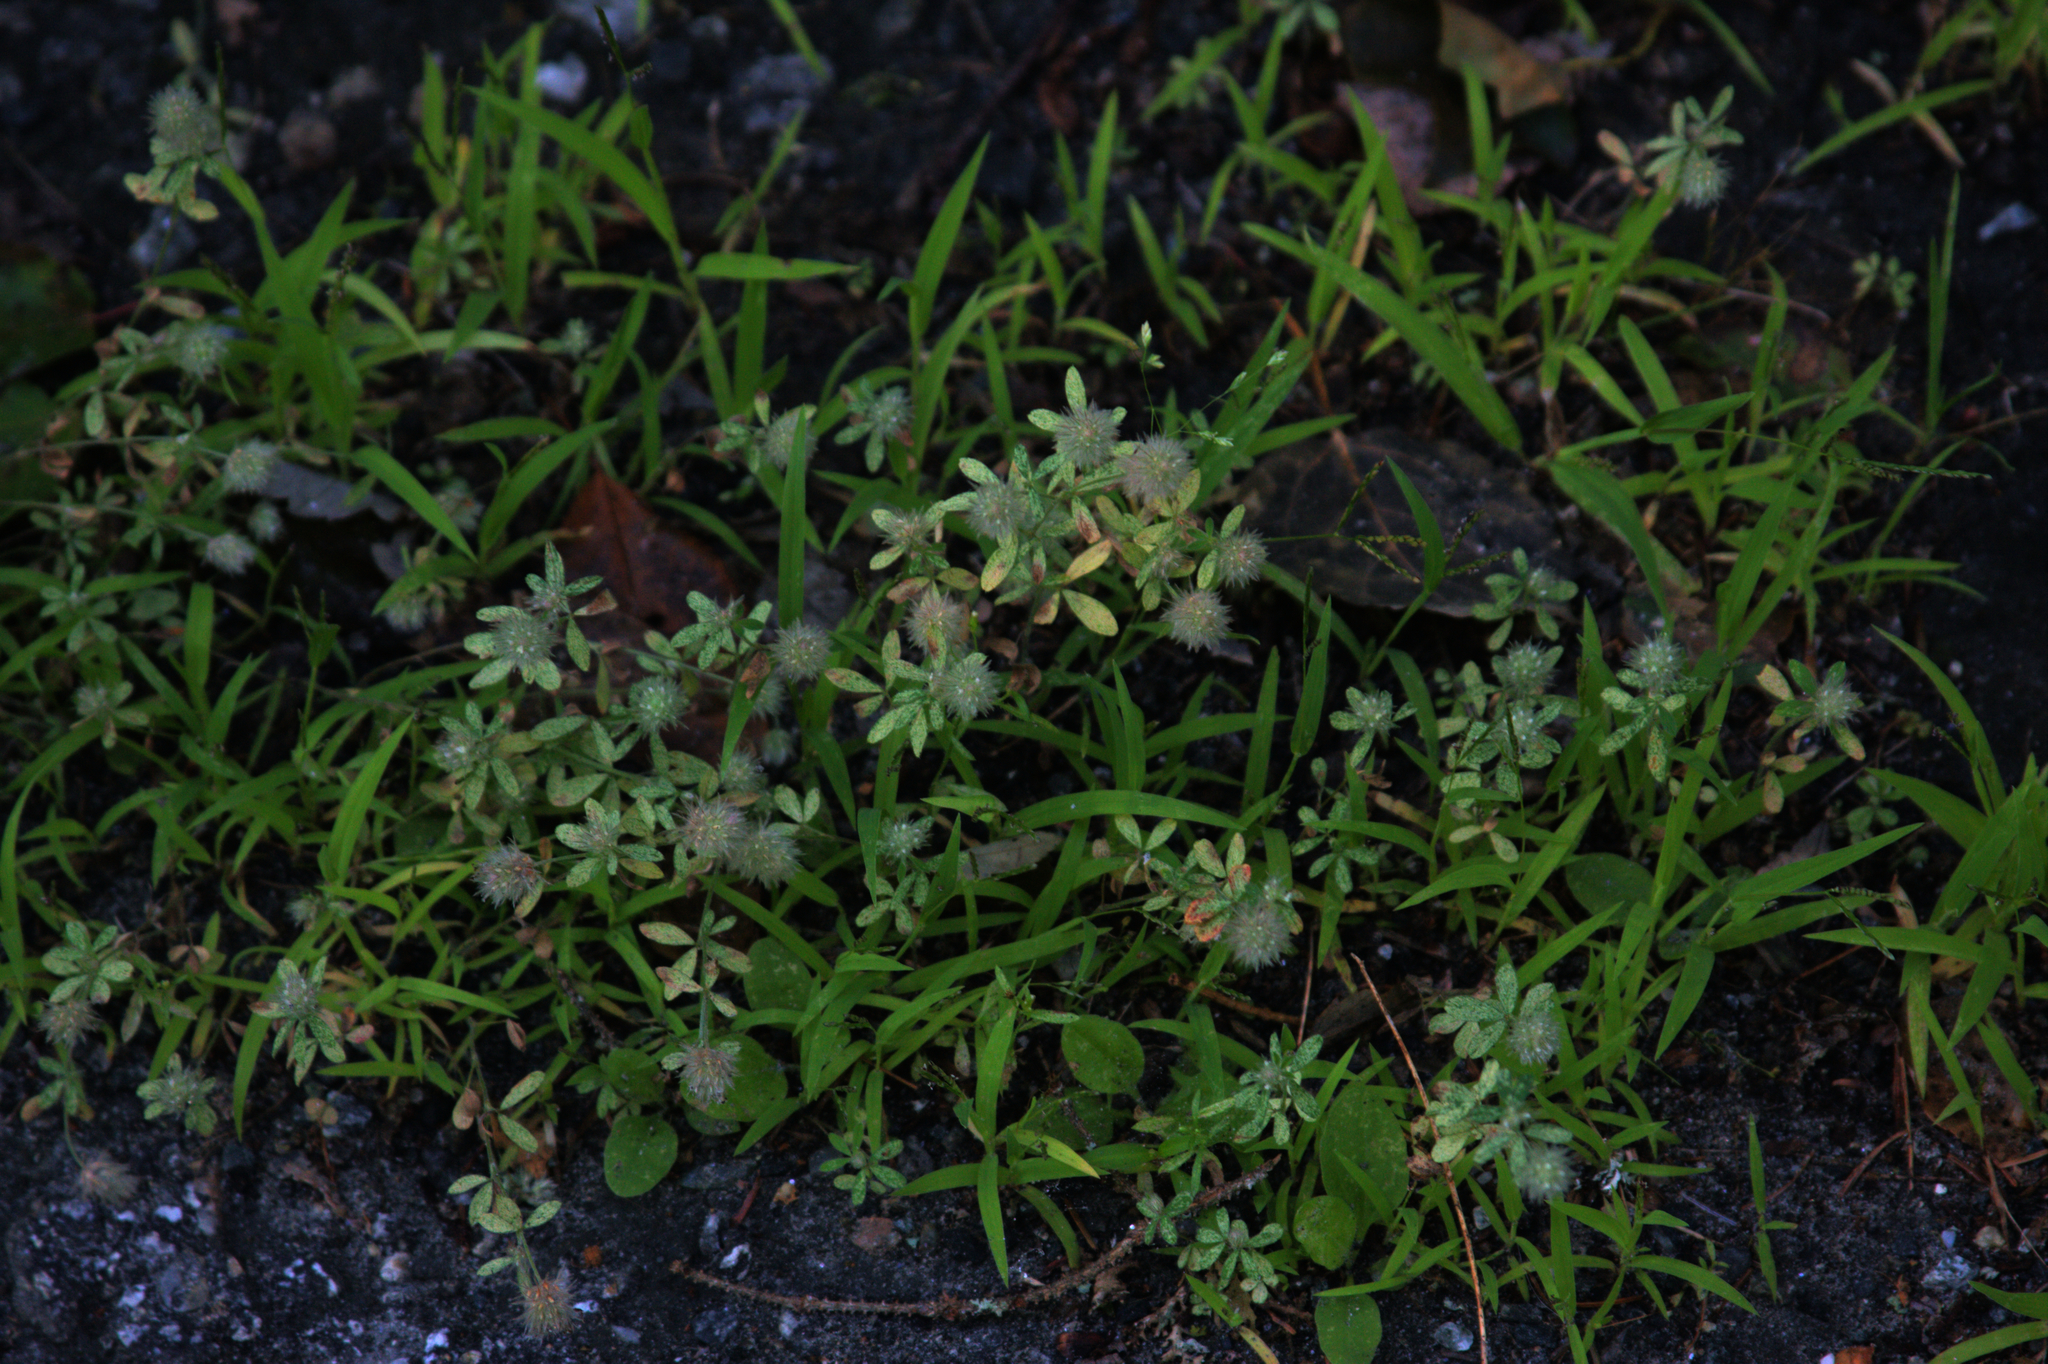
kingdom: Plantae
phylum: Tracheophyta
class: Magnoliopsida
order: Fabales
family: Fabaceae
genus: Trifolium
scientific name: Trifolium arvense
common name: Hare's-foot clover
